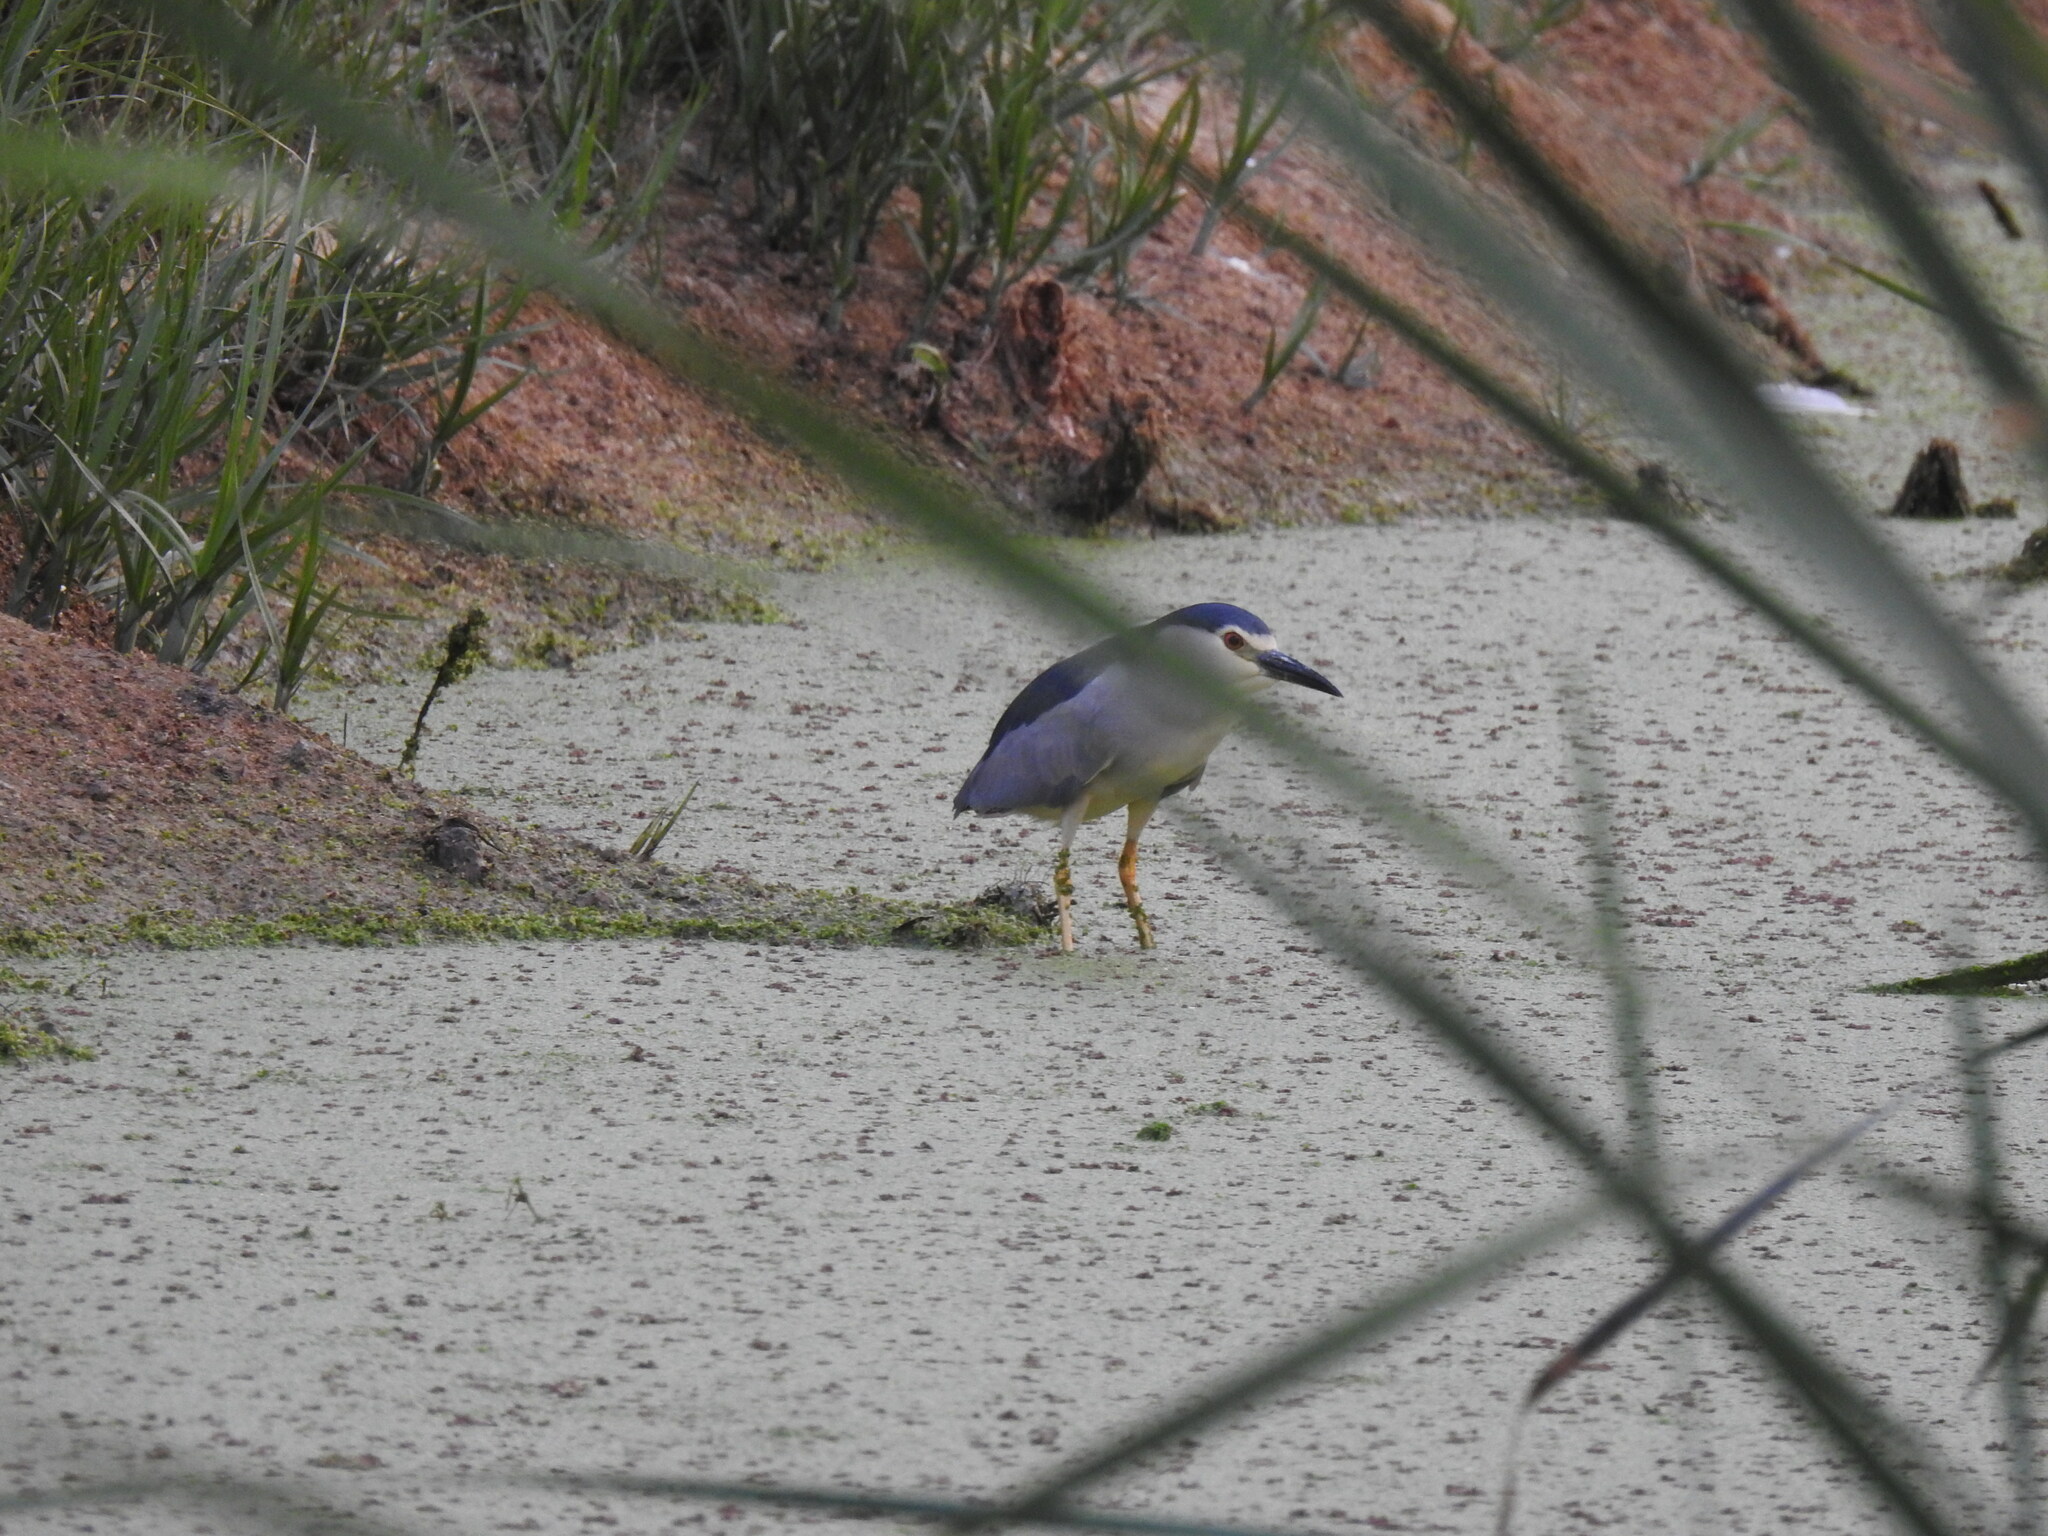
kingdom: Animalia
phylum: Chordata
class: Aves
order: Pelecaniformes
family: Ardeidae
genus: Nycticorax
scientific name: Nycticorax nycticorax
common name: Black-crowned night heron
